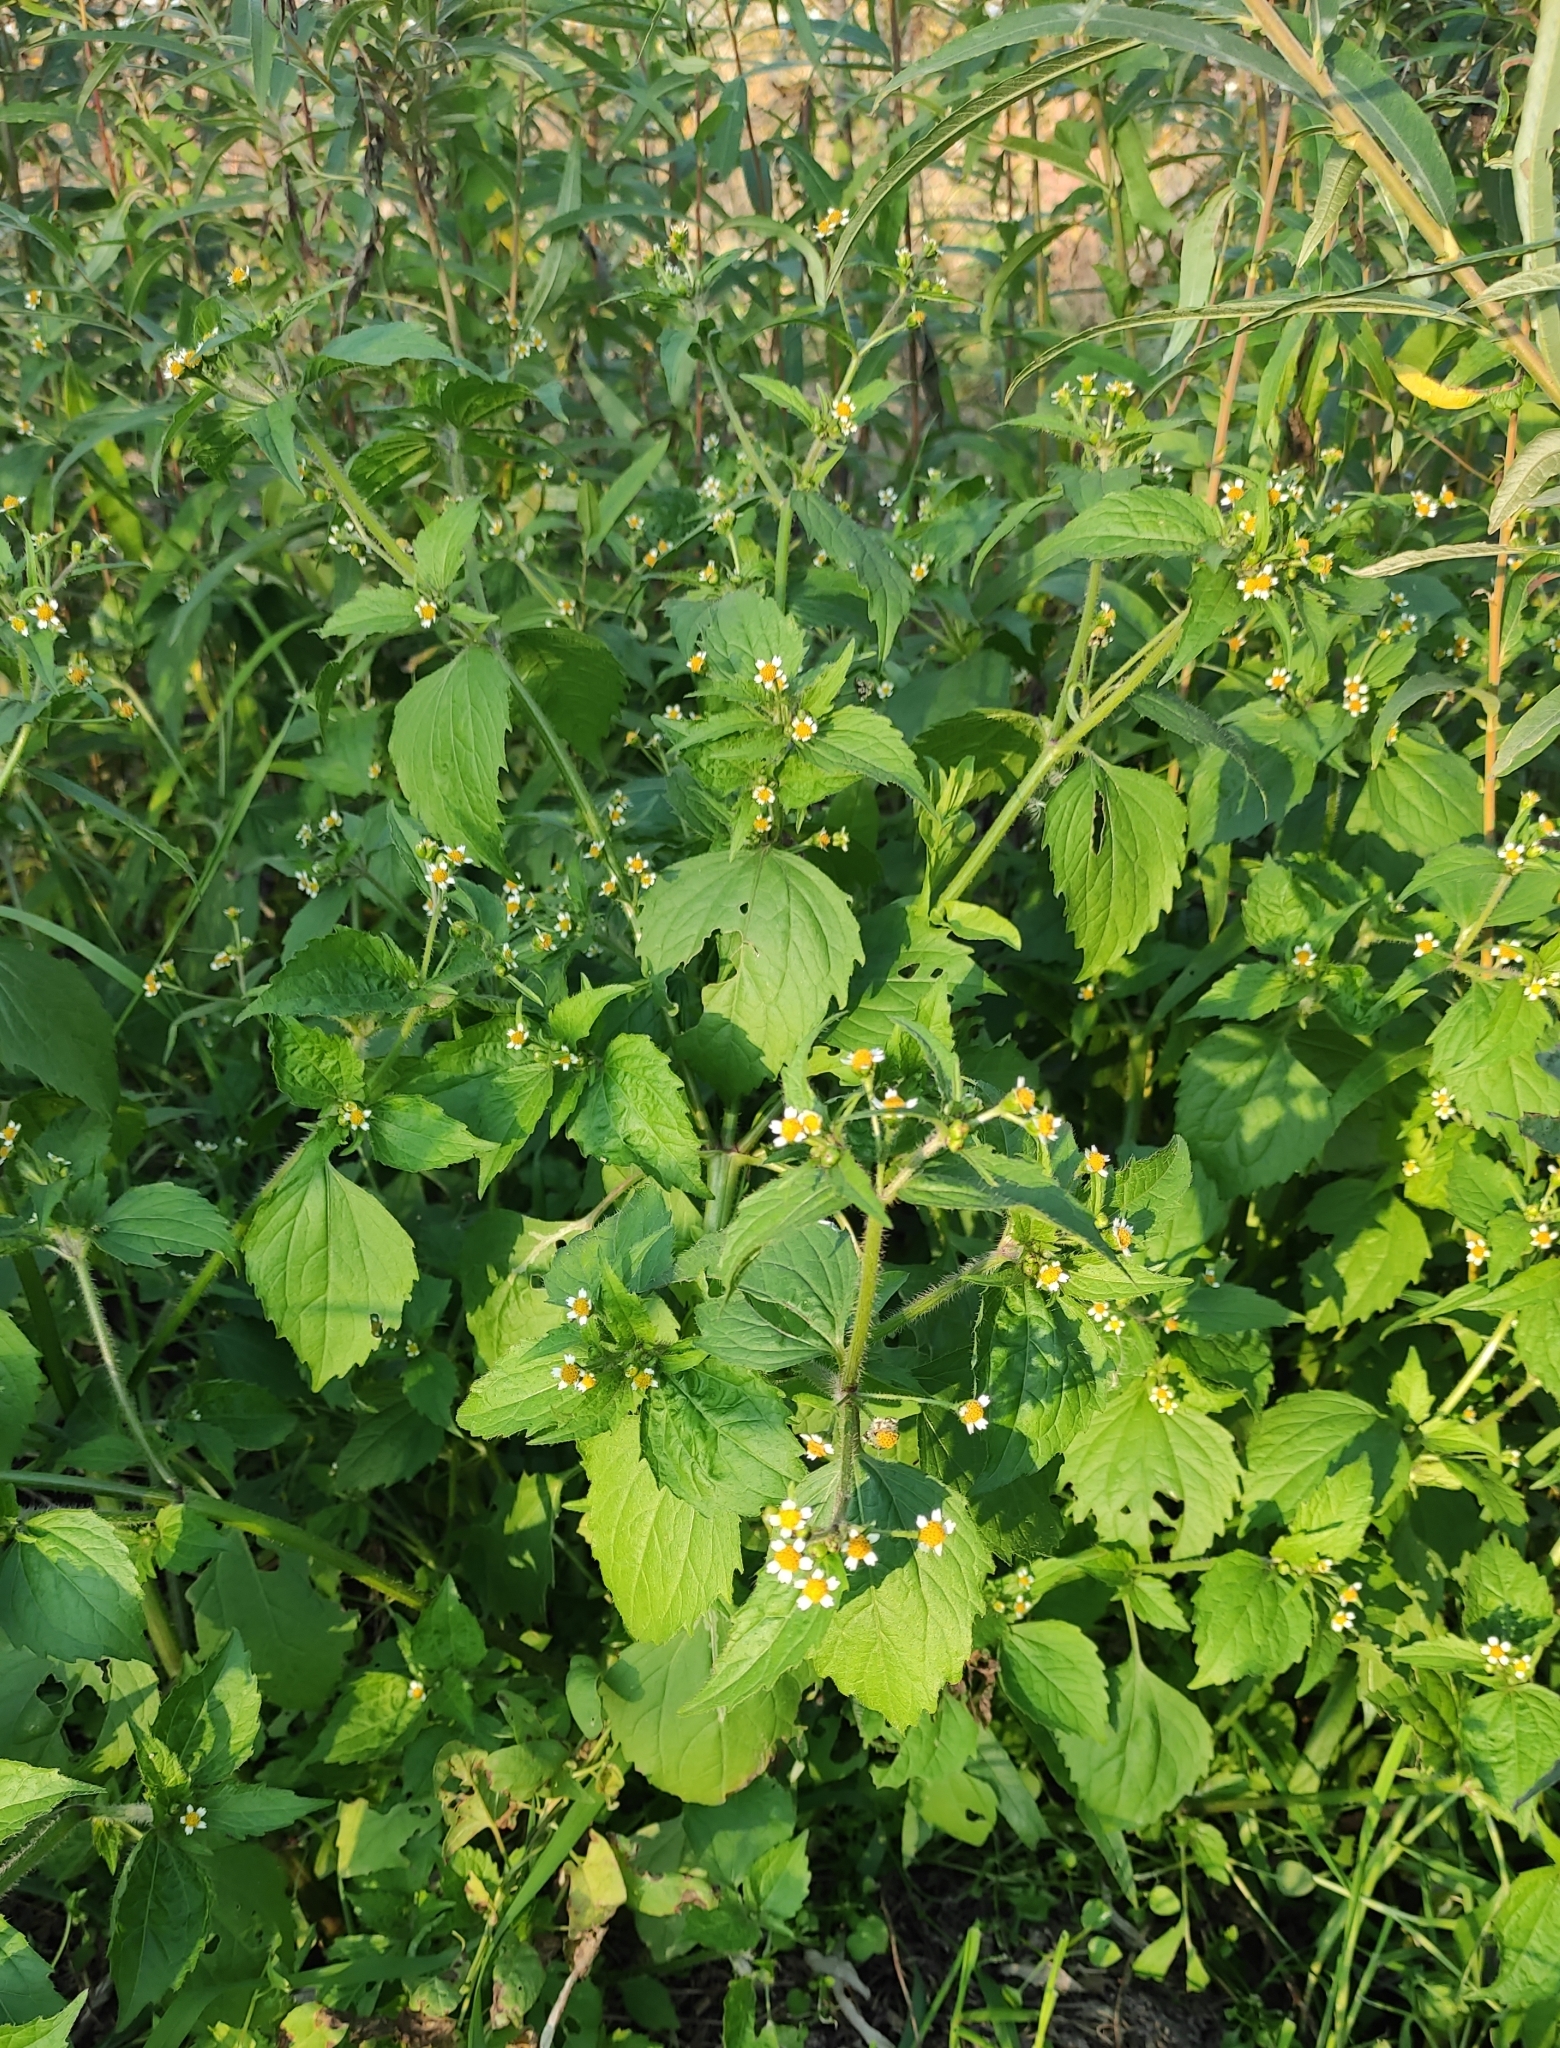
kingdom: Plantae
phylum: Tracheophyta
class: Magnoliopsida
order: Asterales
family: Asteraceae
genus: Galinsoga
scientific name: Galinsoga quadriradiata
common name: Shaggy soldier
